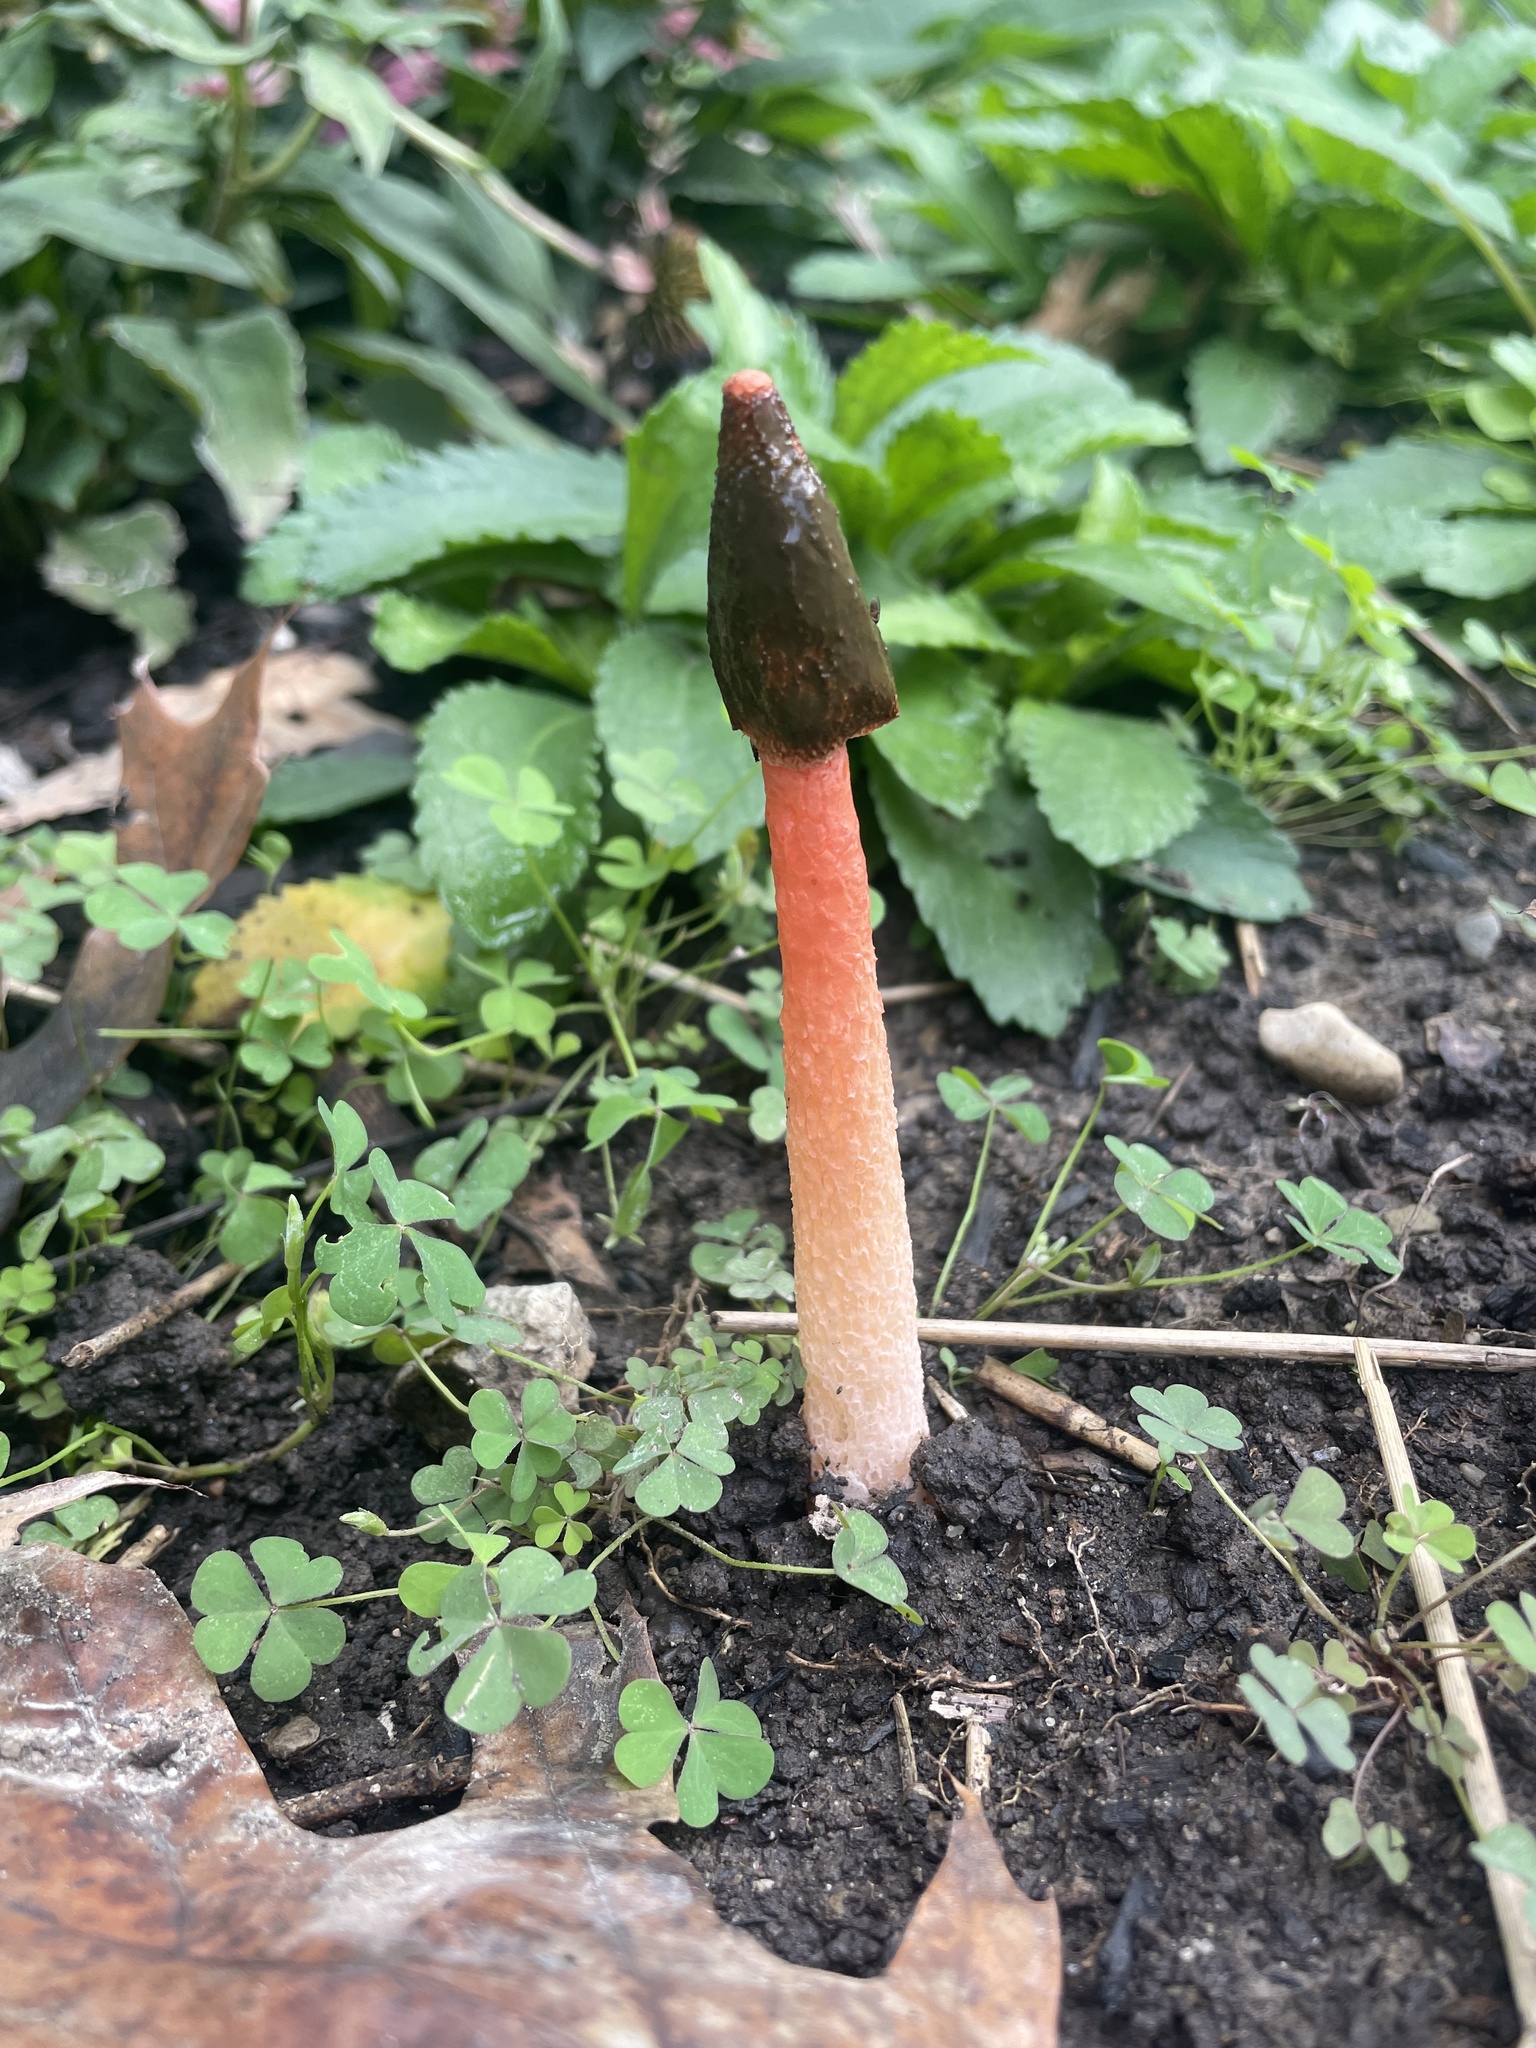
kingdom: Fungi
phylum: Basidiomycota
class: Agaricomycetes
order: Phallales
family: Phallaceae
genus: Phallus
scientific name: Phallus rugulosus
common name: Wrinkly stinkhorn
